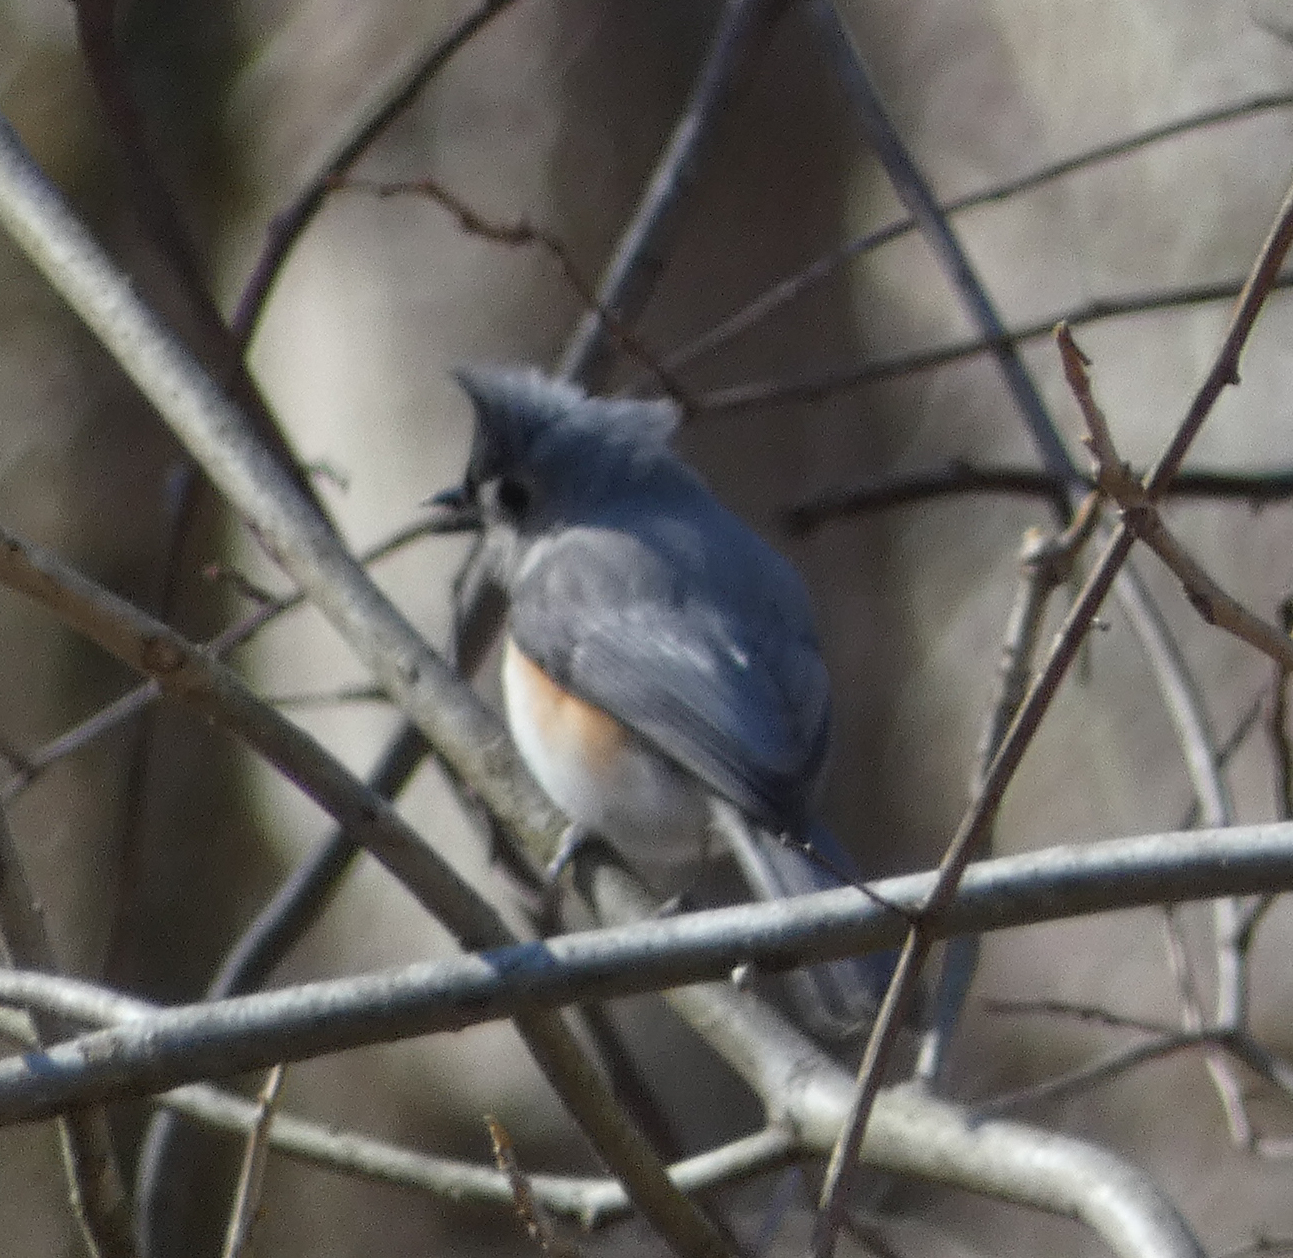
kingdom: Animalia
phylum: Chordata
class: Aves
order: Passeriformes
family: Paridae
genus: Baeolophus
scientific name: Baeolophus bicolor
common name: Tufted titmouse
